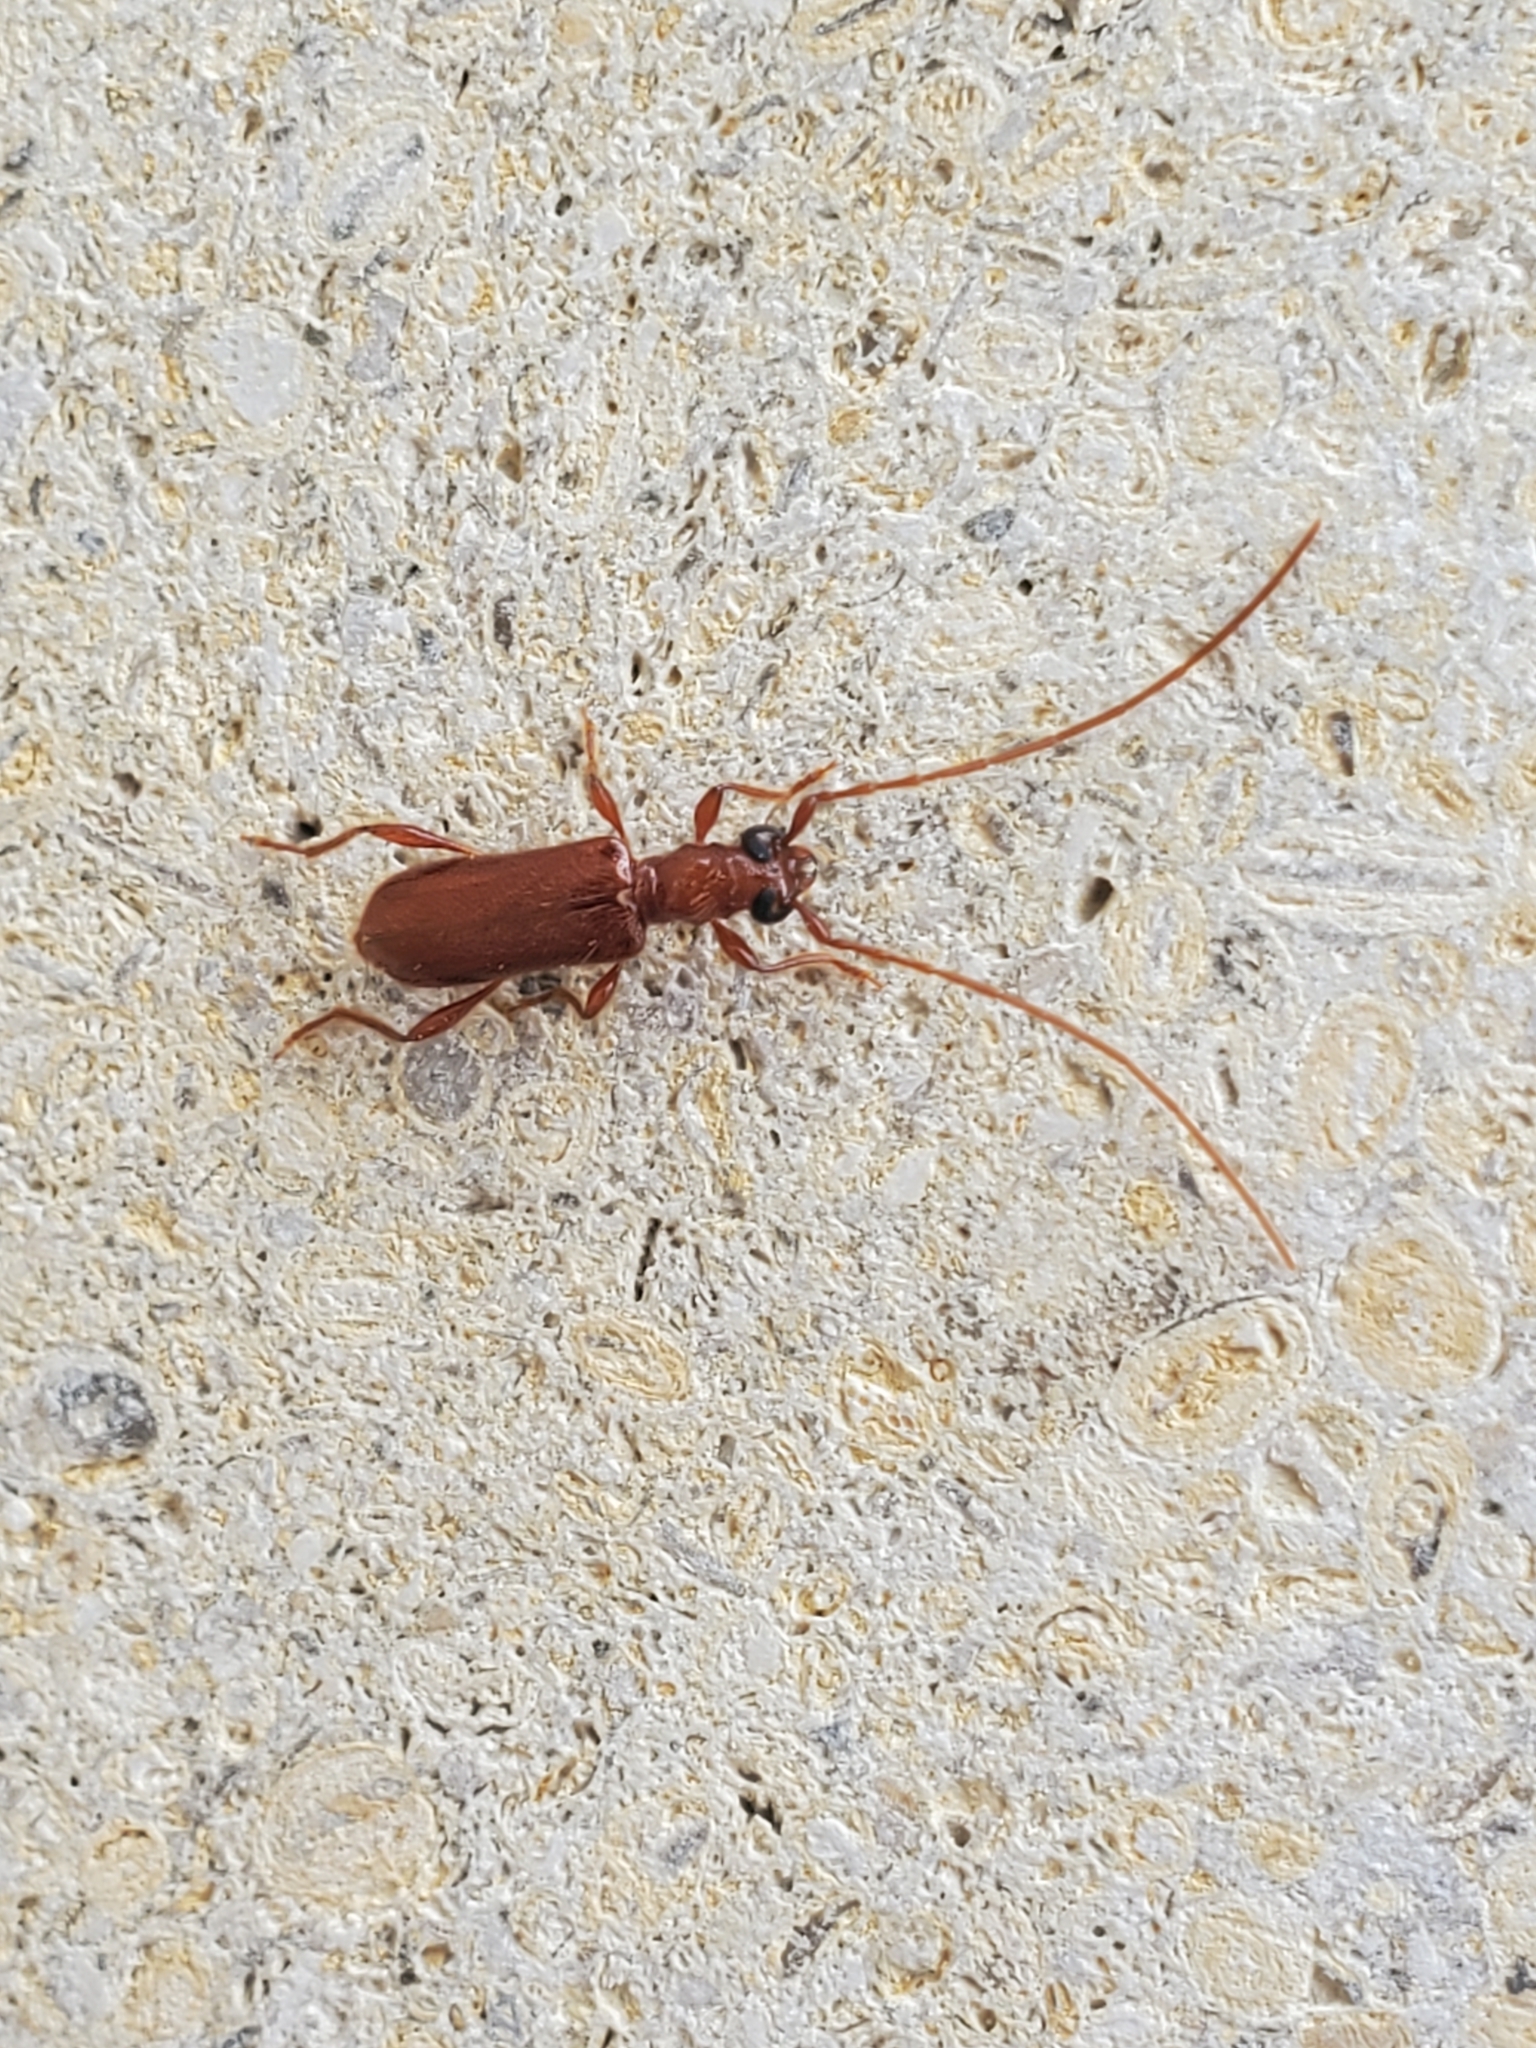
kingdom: Animalia
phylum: Arthropoda
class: Insecta
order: Coleoptera
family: Cerambycidae
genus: Obrium
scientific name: Obrium rufulum
